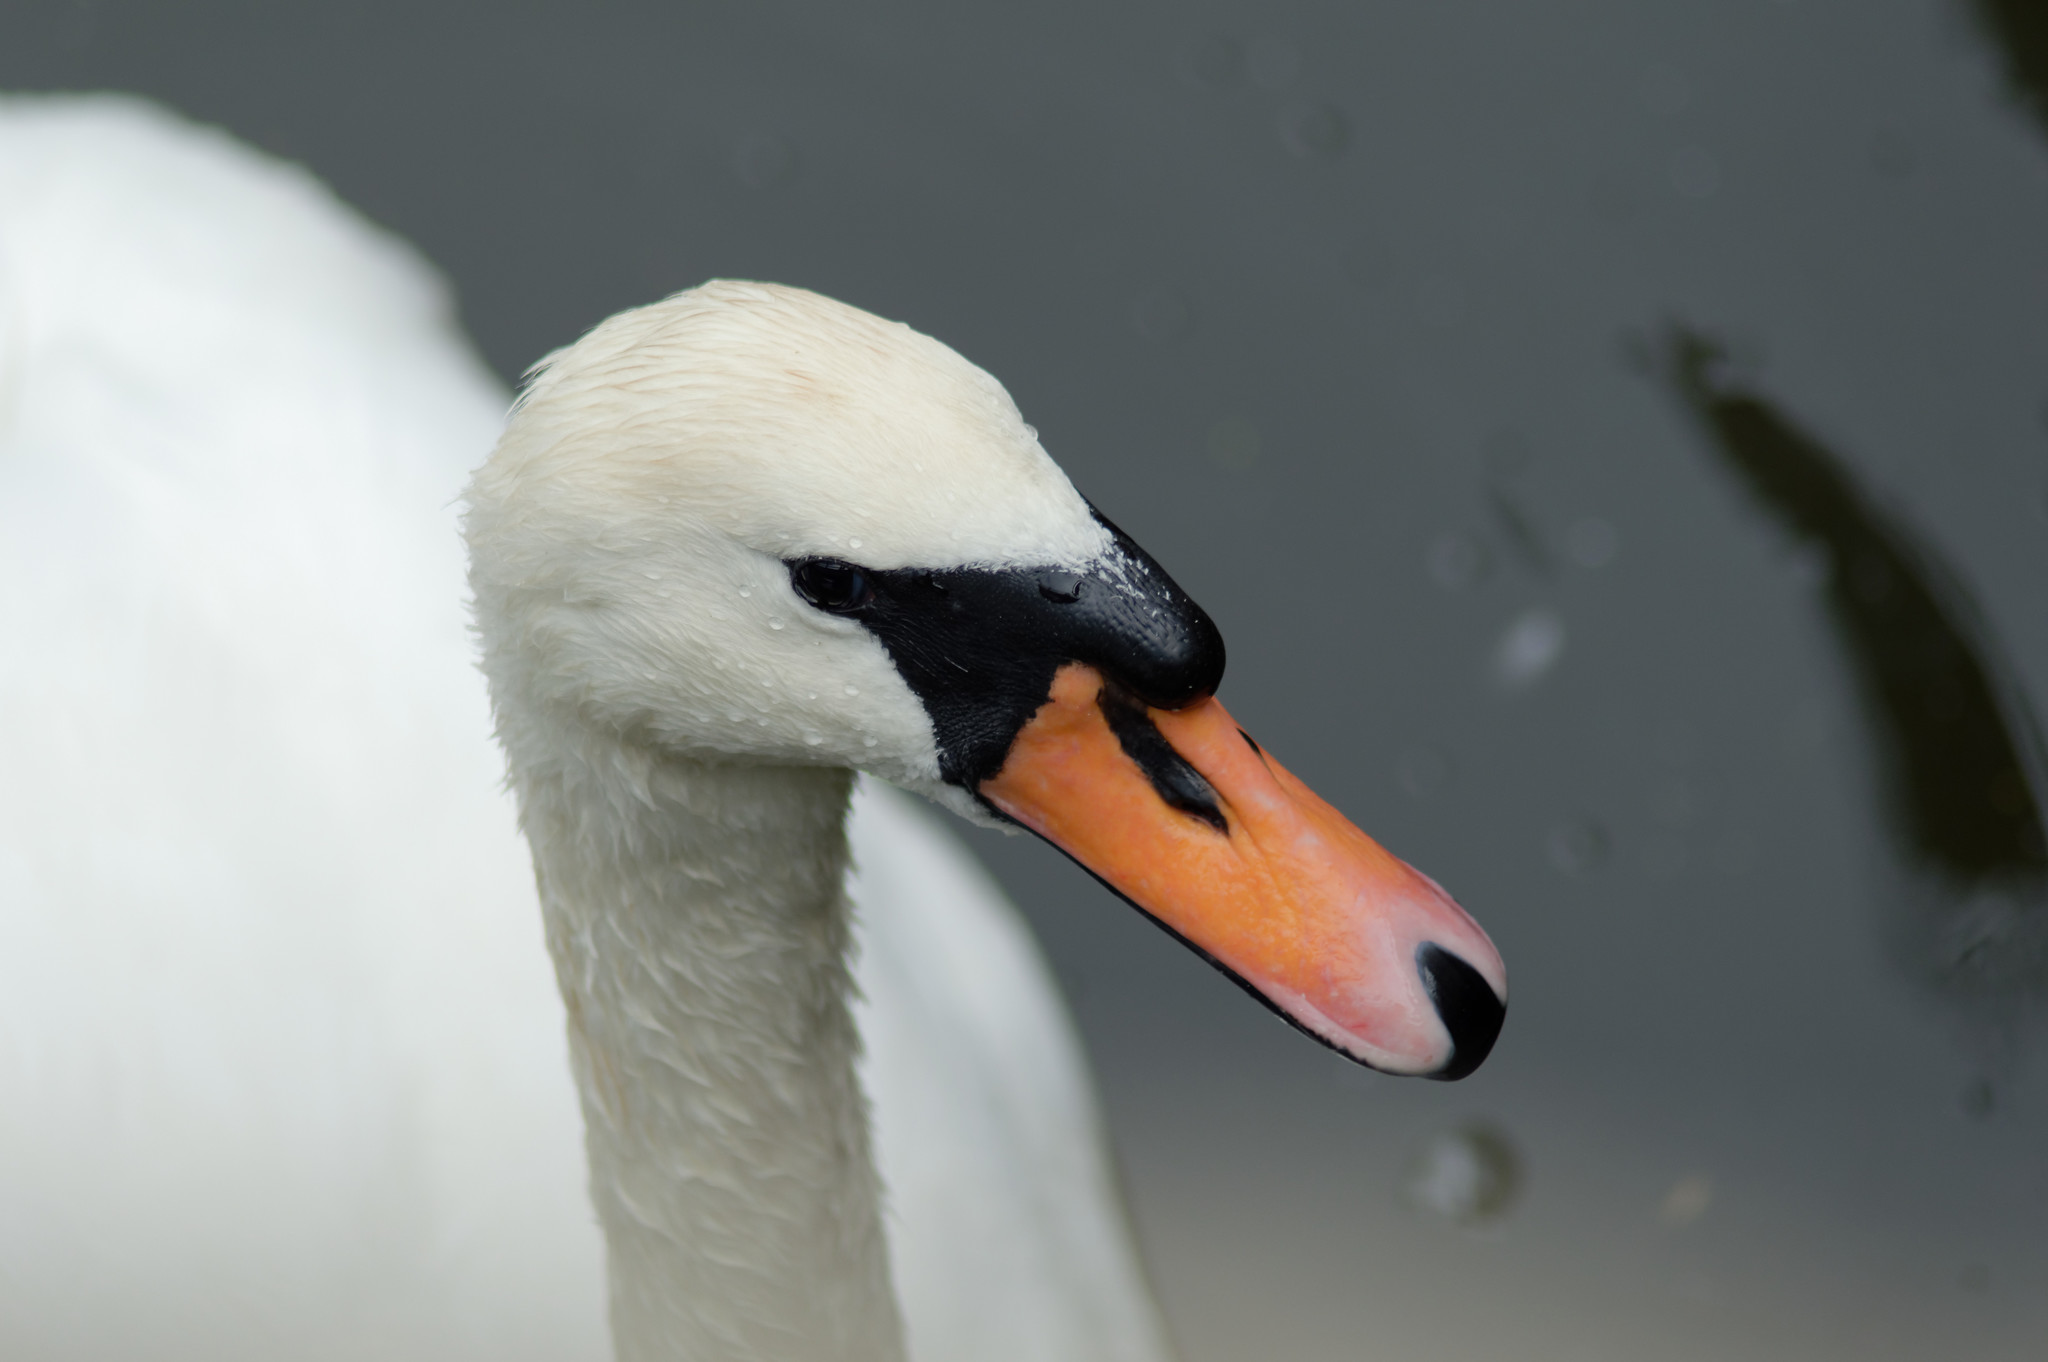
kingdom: Animalia
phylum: Chordata
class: Aves
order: Anseriformes
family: Anatidae
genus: Cygnus
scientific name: Cygnus olor
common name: Mute swan
